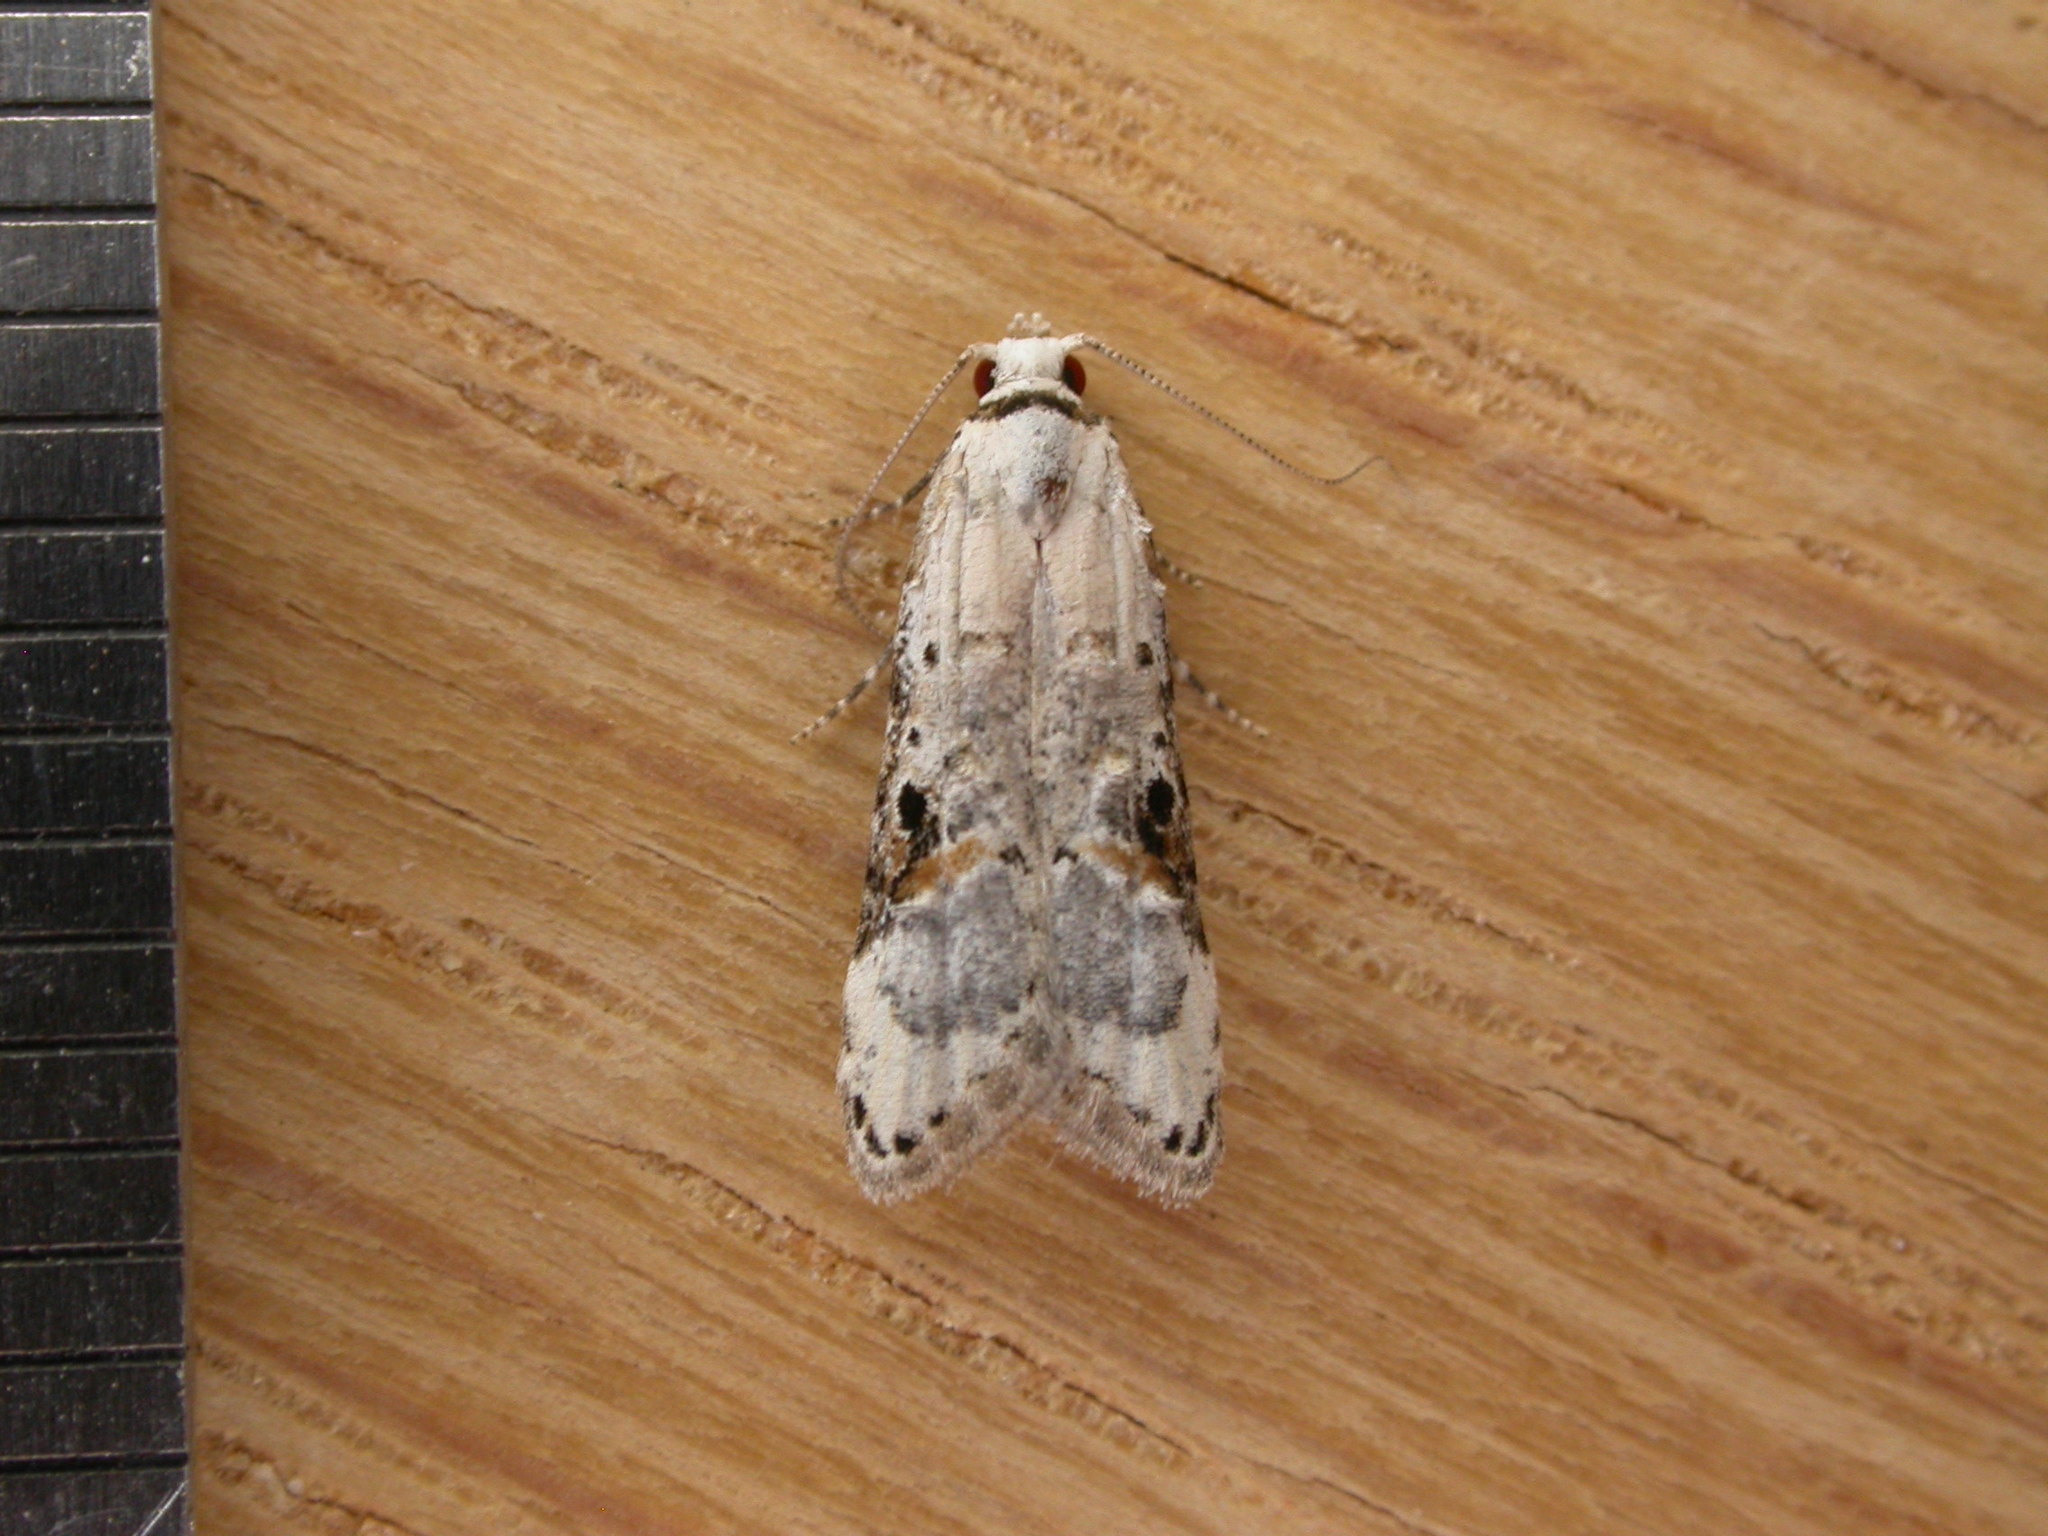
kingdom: Animalia
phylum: Arthropoda
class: Insecta
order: Lepidoptera
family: Carposinidae
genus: Sosineura
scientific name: Sosineura mimica
